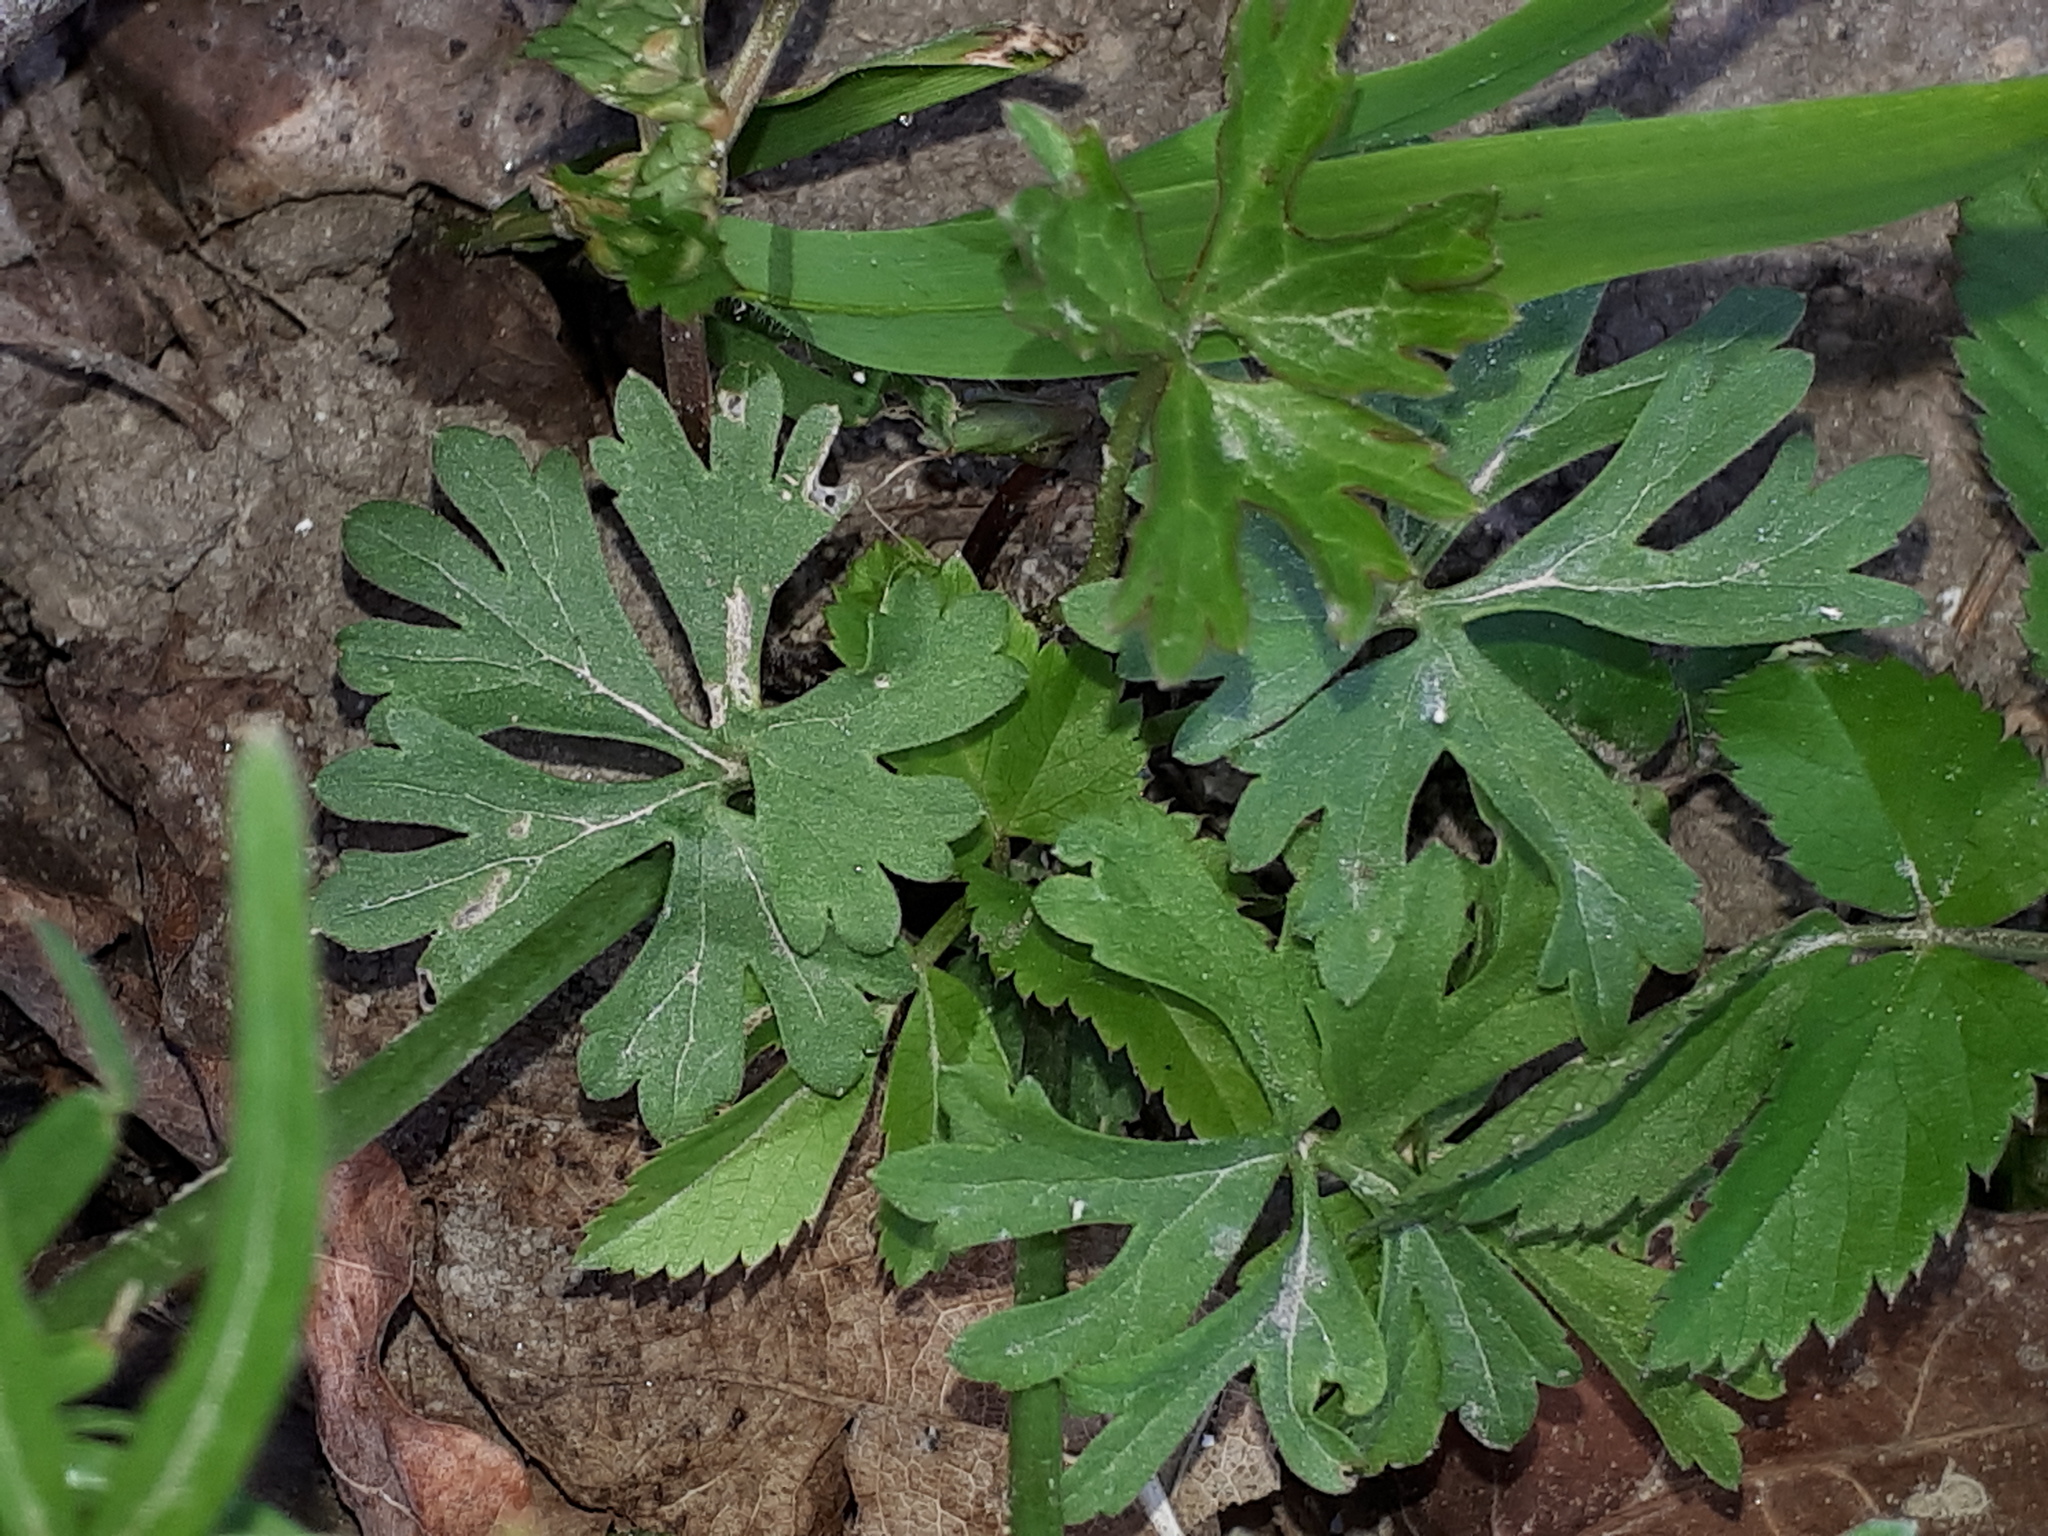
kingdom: Plantae
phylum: Tracheophyta
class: Magnoliopsida
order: Ranunculales
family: Ranunculaceae
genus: Ranunculus
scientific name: Ranunculus auricomus
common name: Goldilocks buttercup
